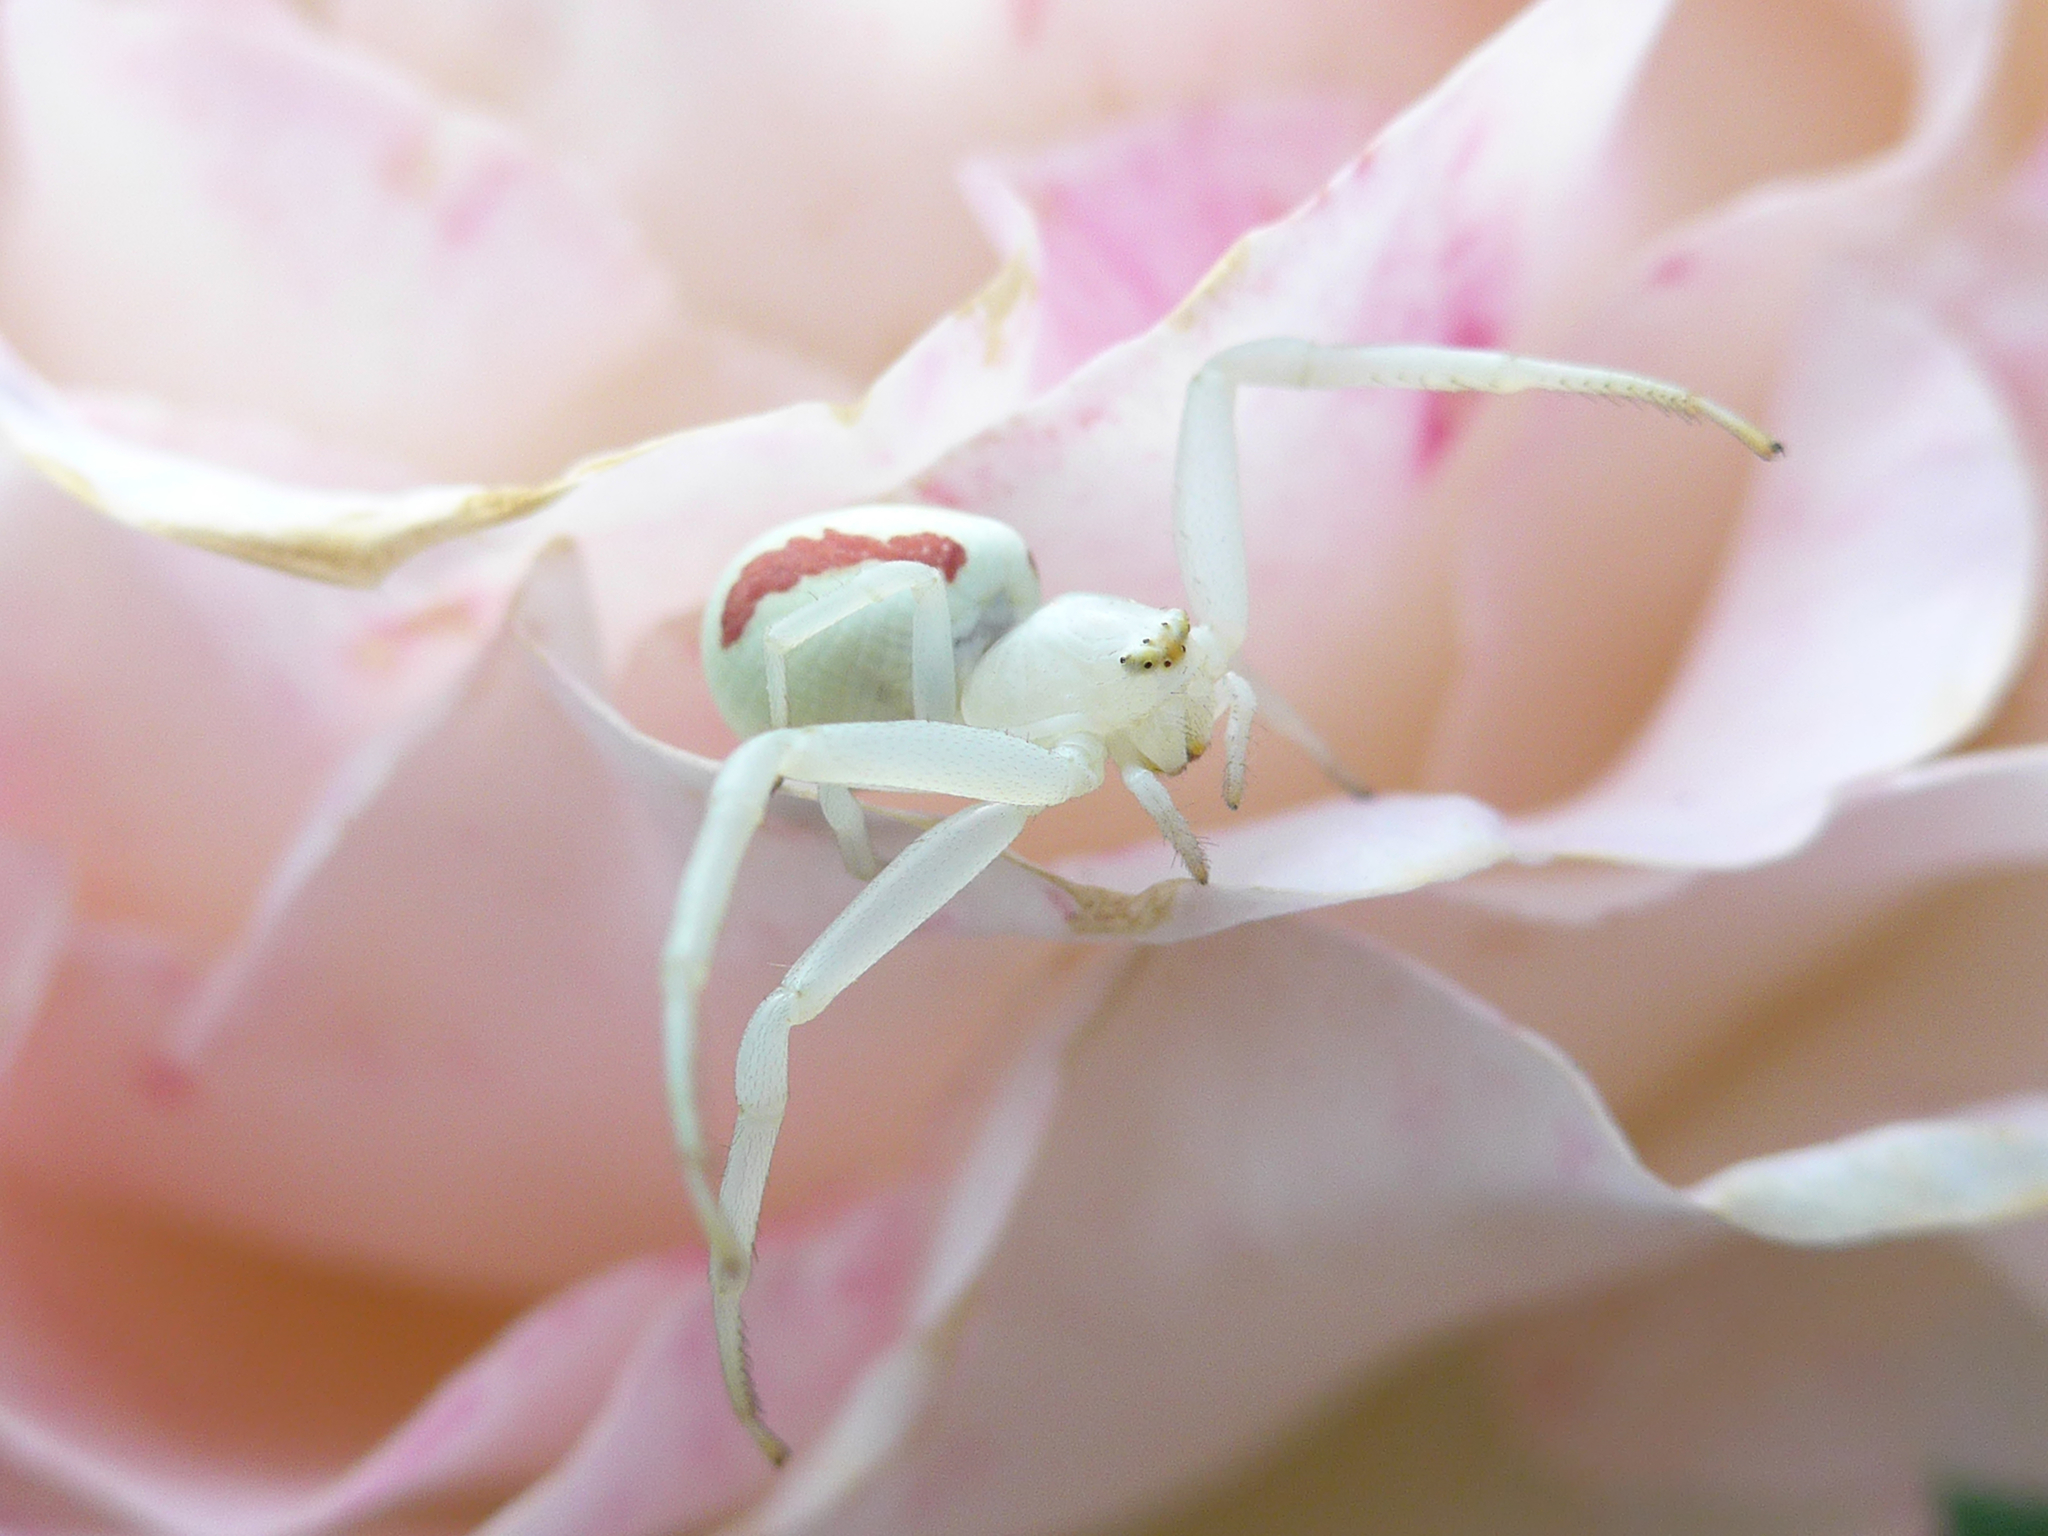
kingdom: Animalia
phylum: Arthropoda
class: Arachnida
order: Araneae
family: Thomisidae
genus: Misumena
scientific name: Misumena vatia
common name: Goldenrod crab spider
